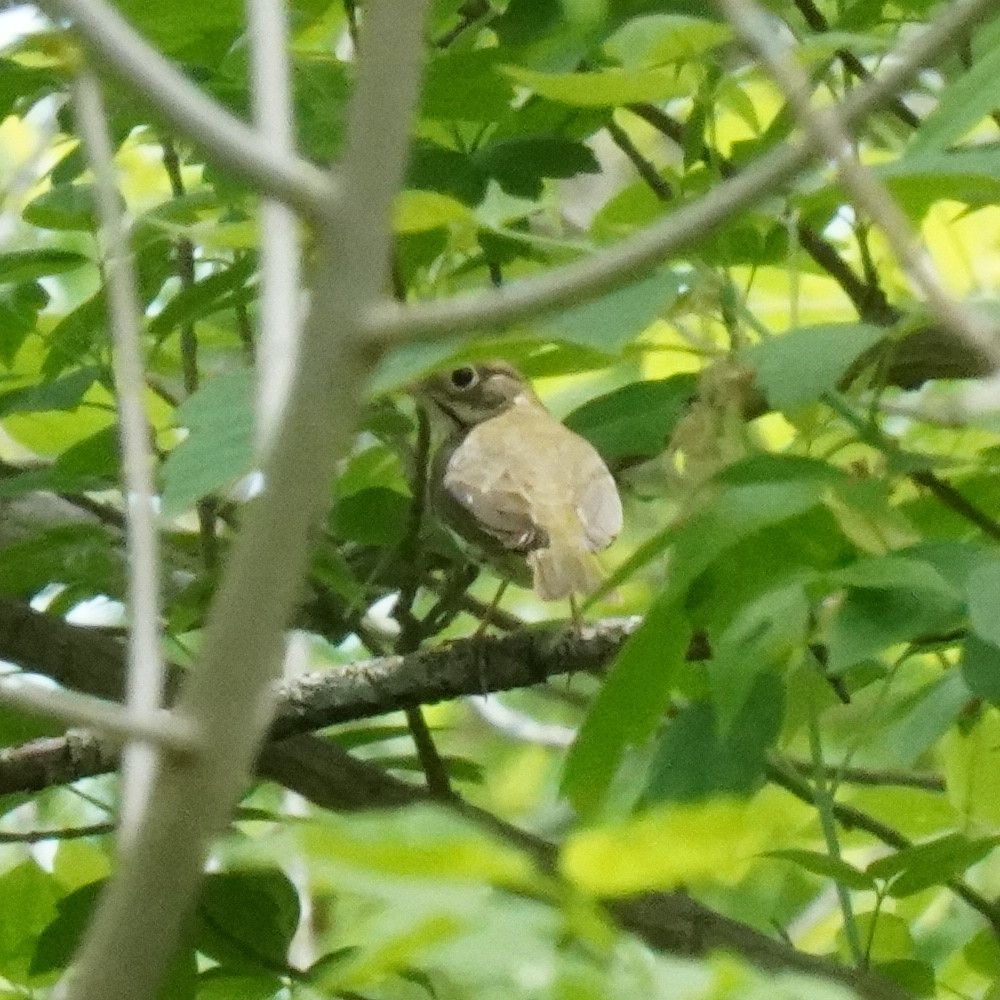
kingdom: Animalia
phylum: Chordata
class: Aves
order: Passeriformes
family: Parulidae
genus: Seiurus
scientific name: Seiurus aurocapilla
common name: Ovenbird
